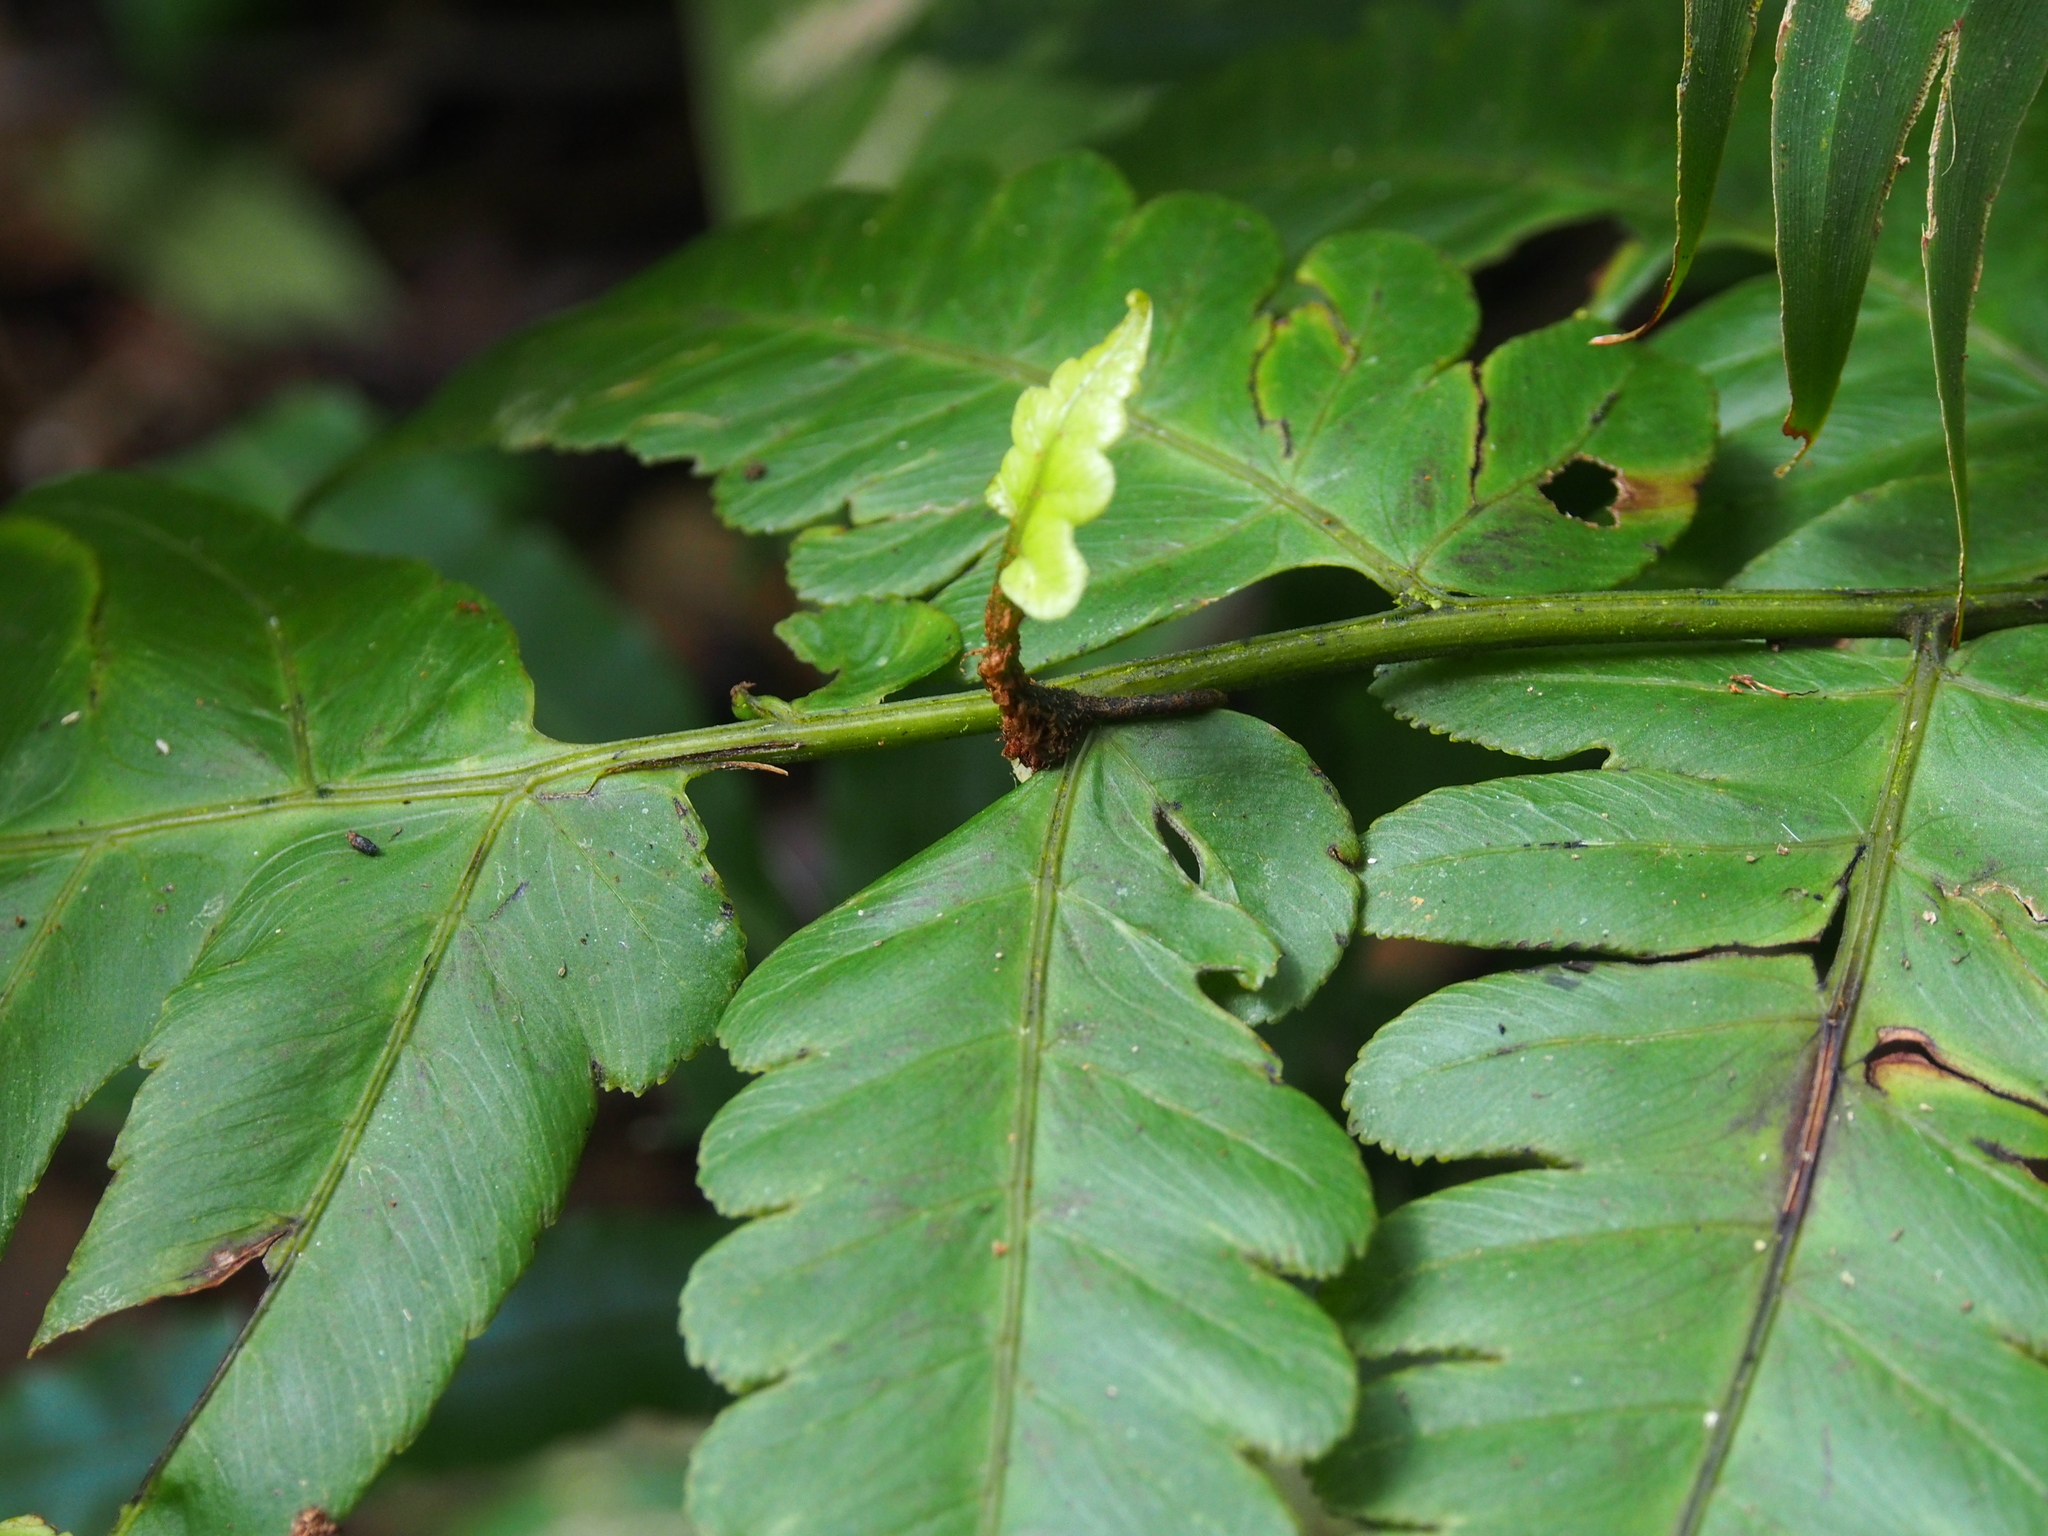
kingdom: Plantae
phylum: Tracheophyta
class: Polypodiopsida
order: Polypodiales
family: Athyriaceae
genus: Diplazium
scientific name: Diplazium macrophyllum
